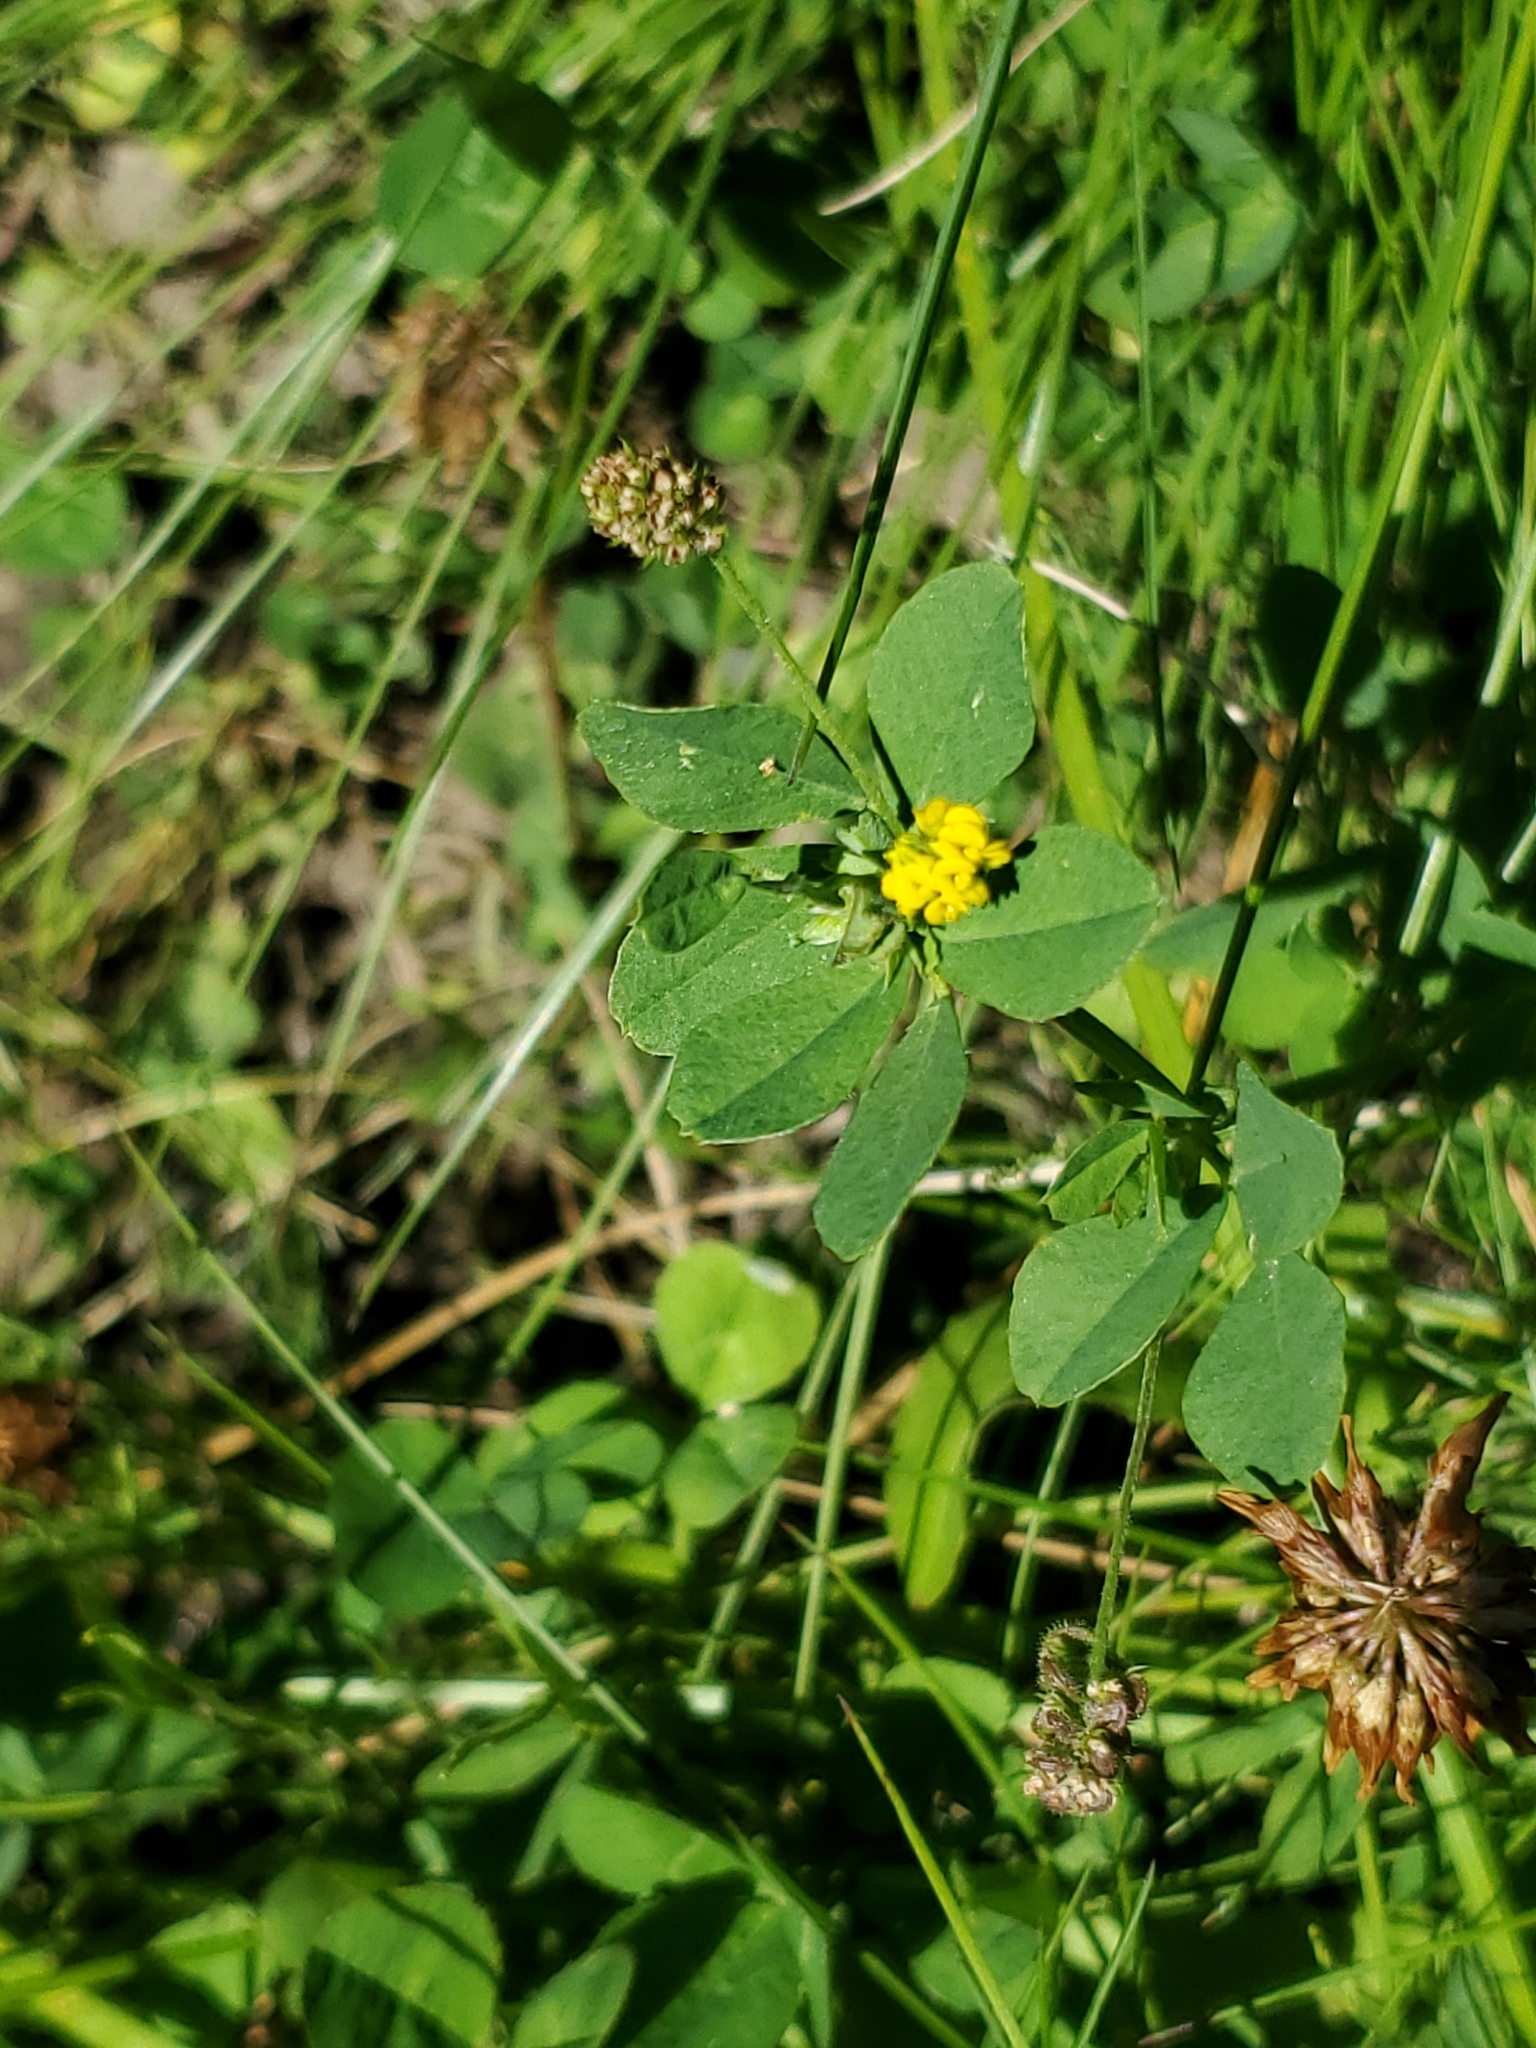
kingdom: Plantae
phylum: Tracheophyta
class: Magnoliopsida
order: Fabales
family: Fabaceae
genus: Medicago
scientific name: Medicago lupulina
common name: Black medick
